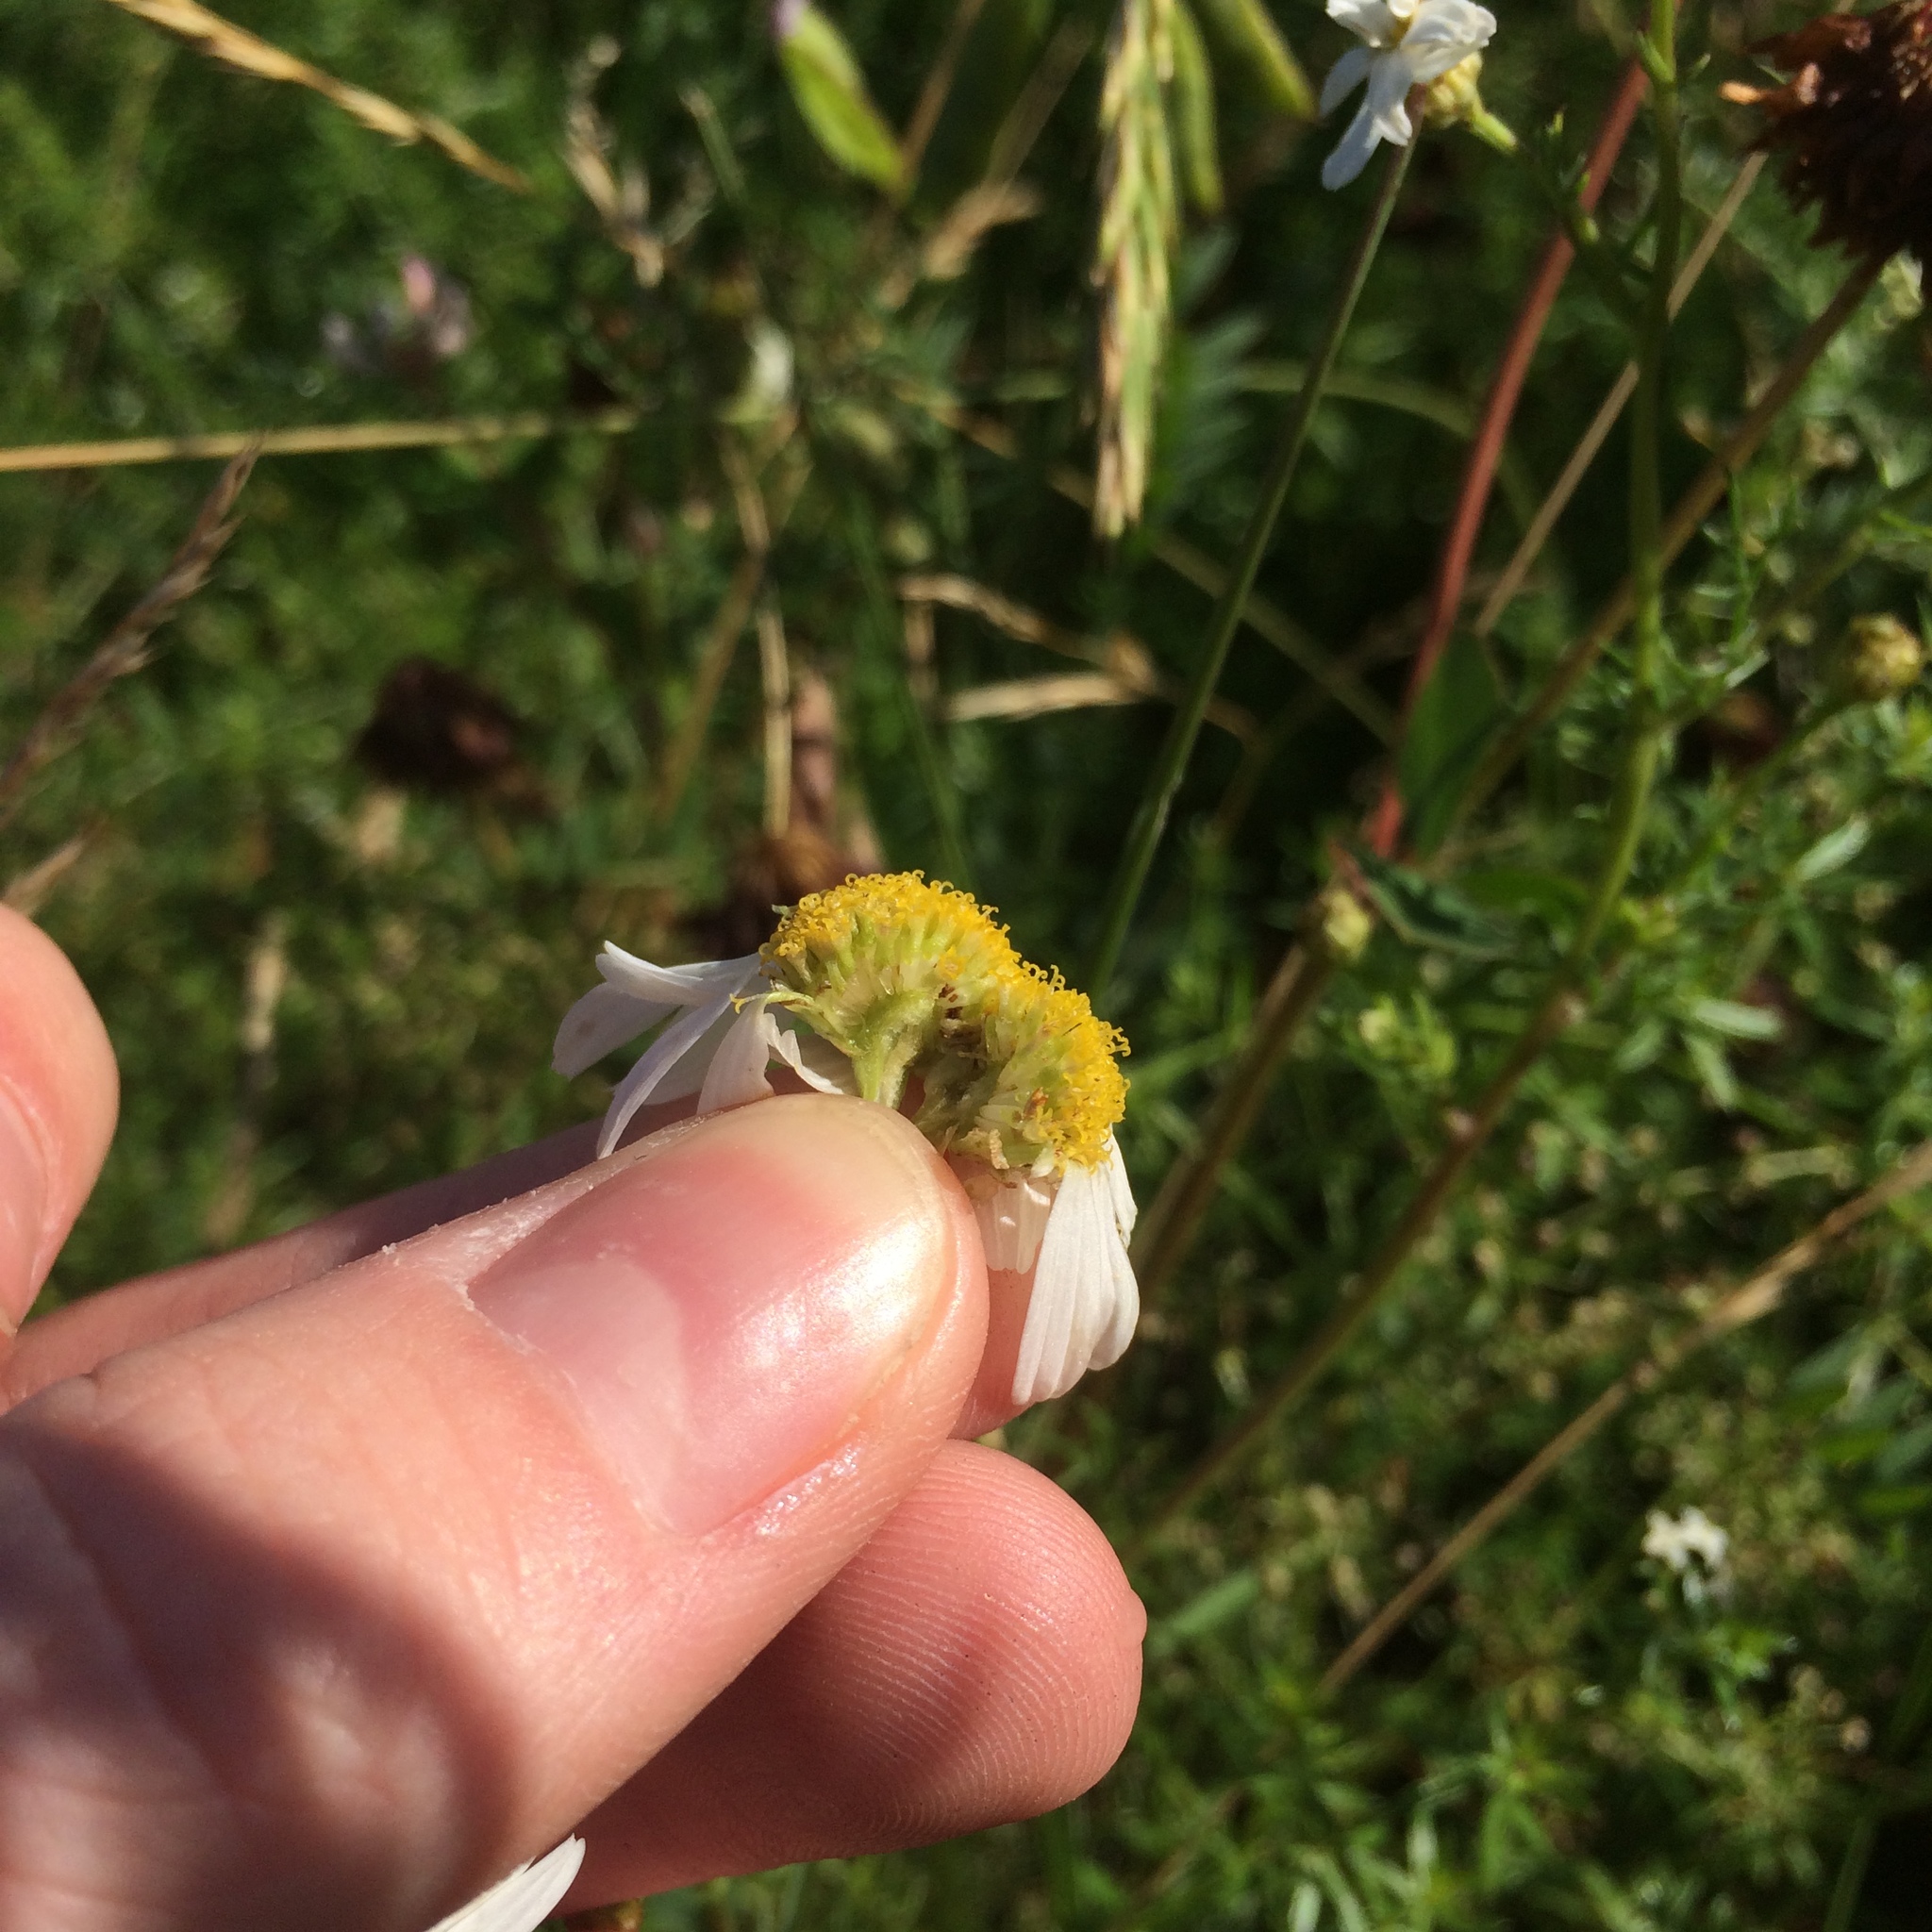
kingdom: Plantae
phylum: Tracheophyta
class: Magnoliopsida
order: Asterales
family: Asteraceae
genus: Tripleurospermum
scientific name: Tripleurospermum inodorum
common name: Scentless mayweed
